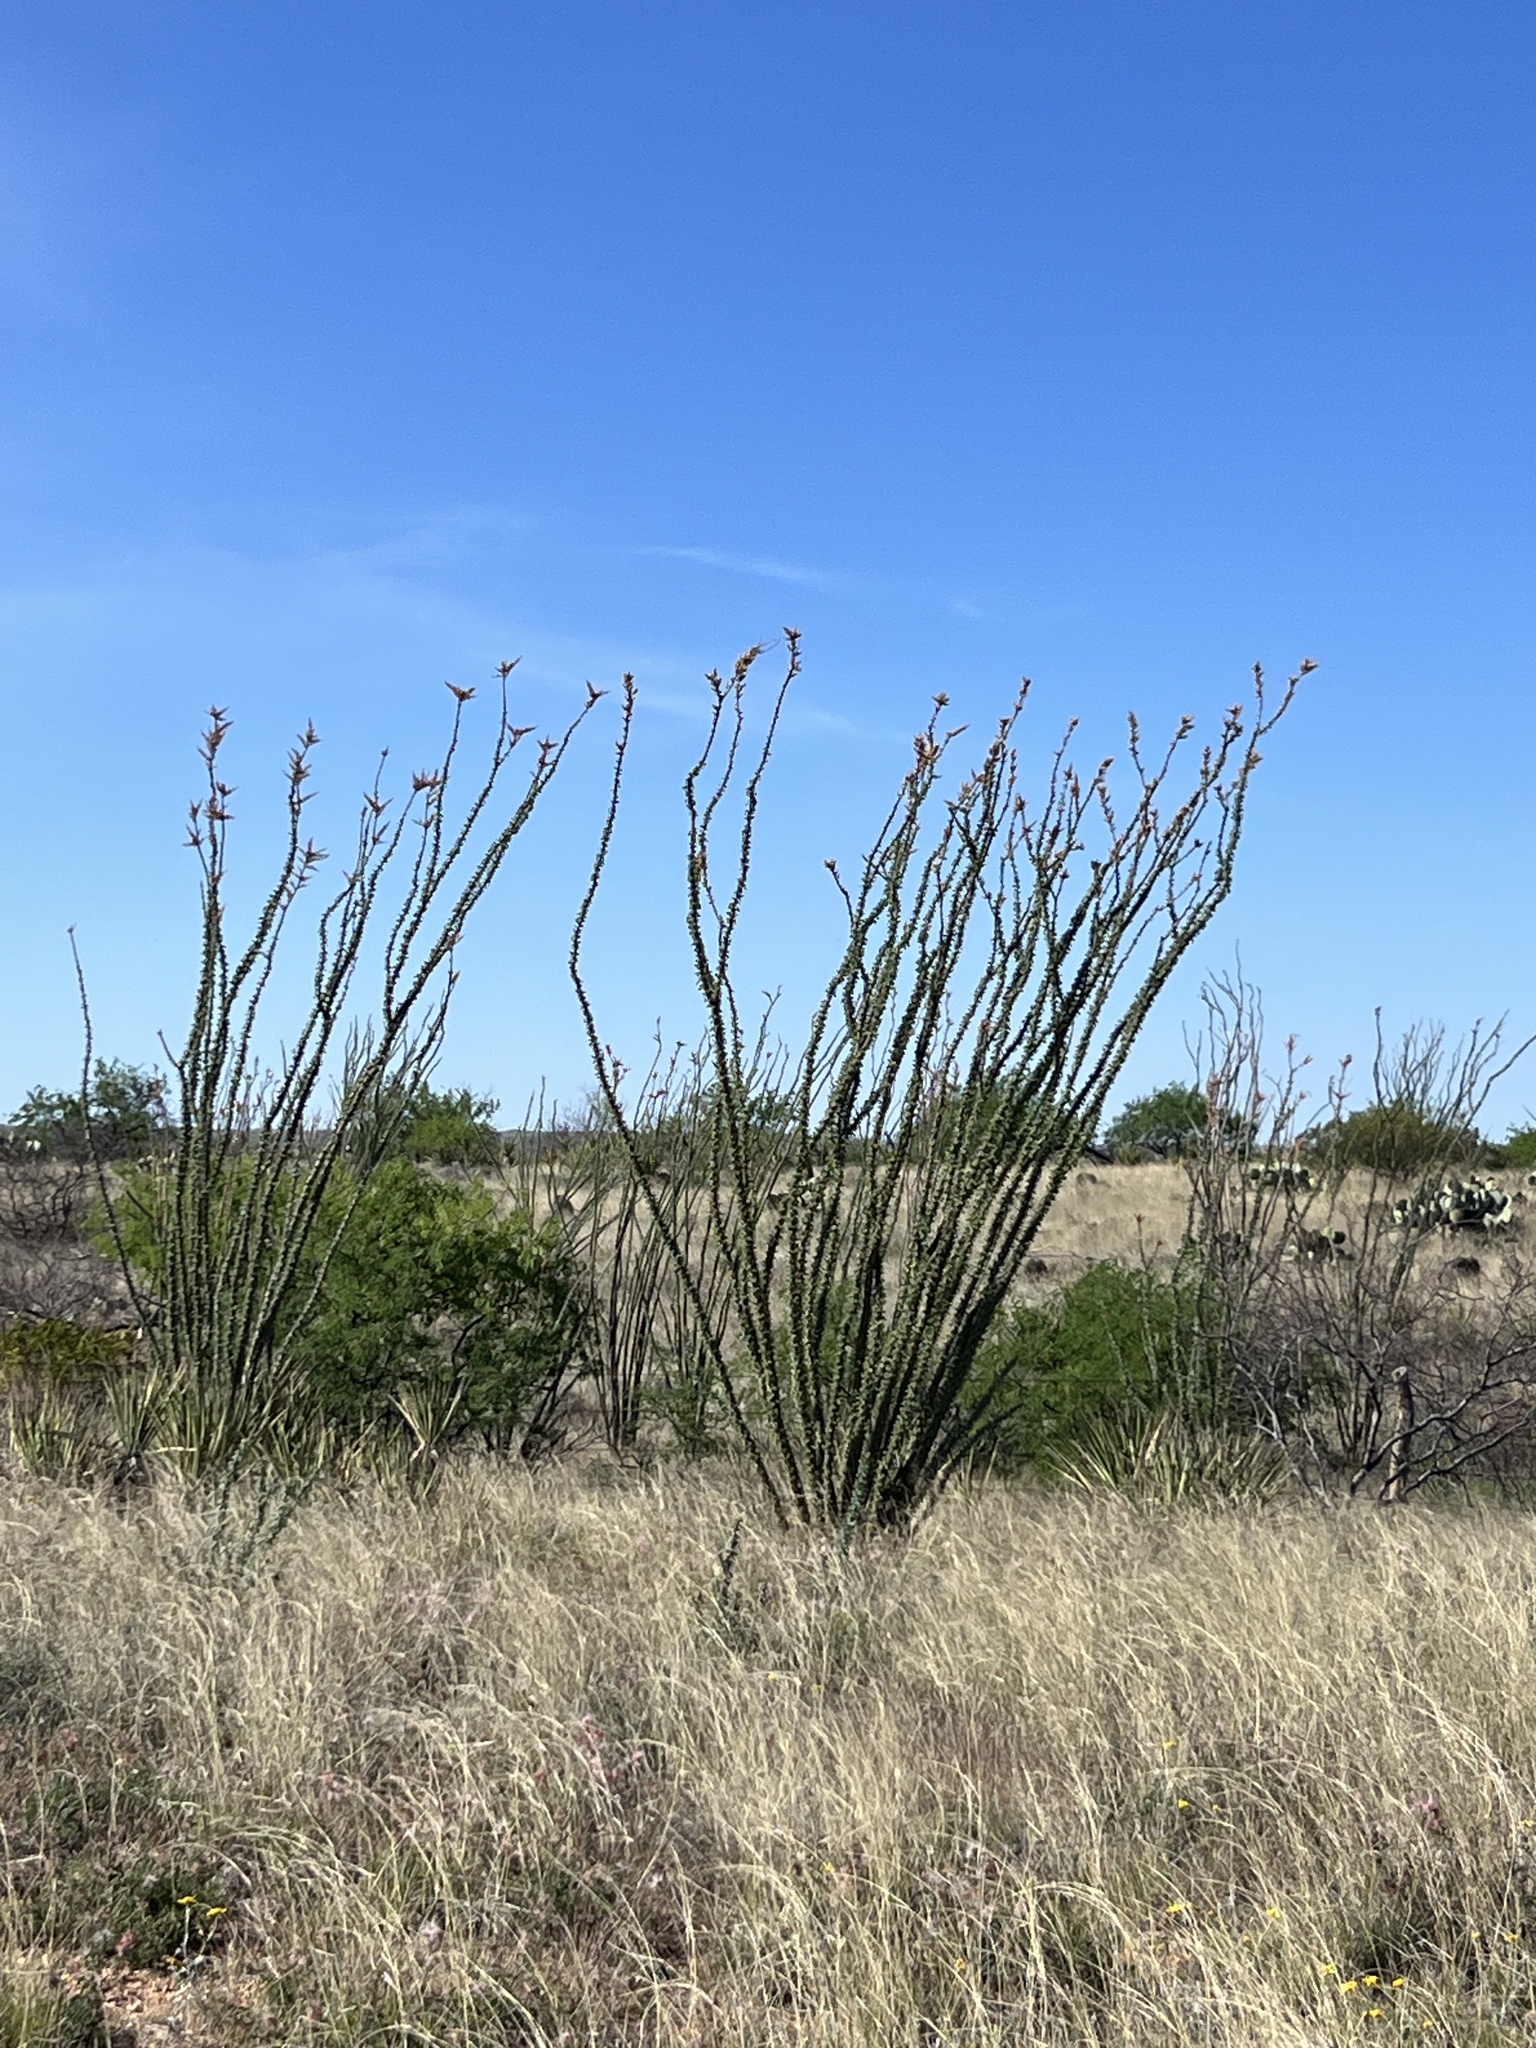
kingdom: Plantae
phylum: Tracheophyta
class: Magnoliopsida
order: Ericales
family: Fouquieriaceae
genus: Fouquieria
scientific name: Fouquieria splendens
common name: Vine-cactus
